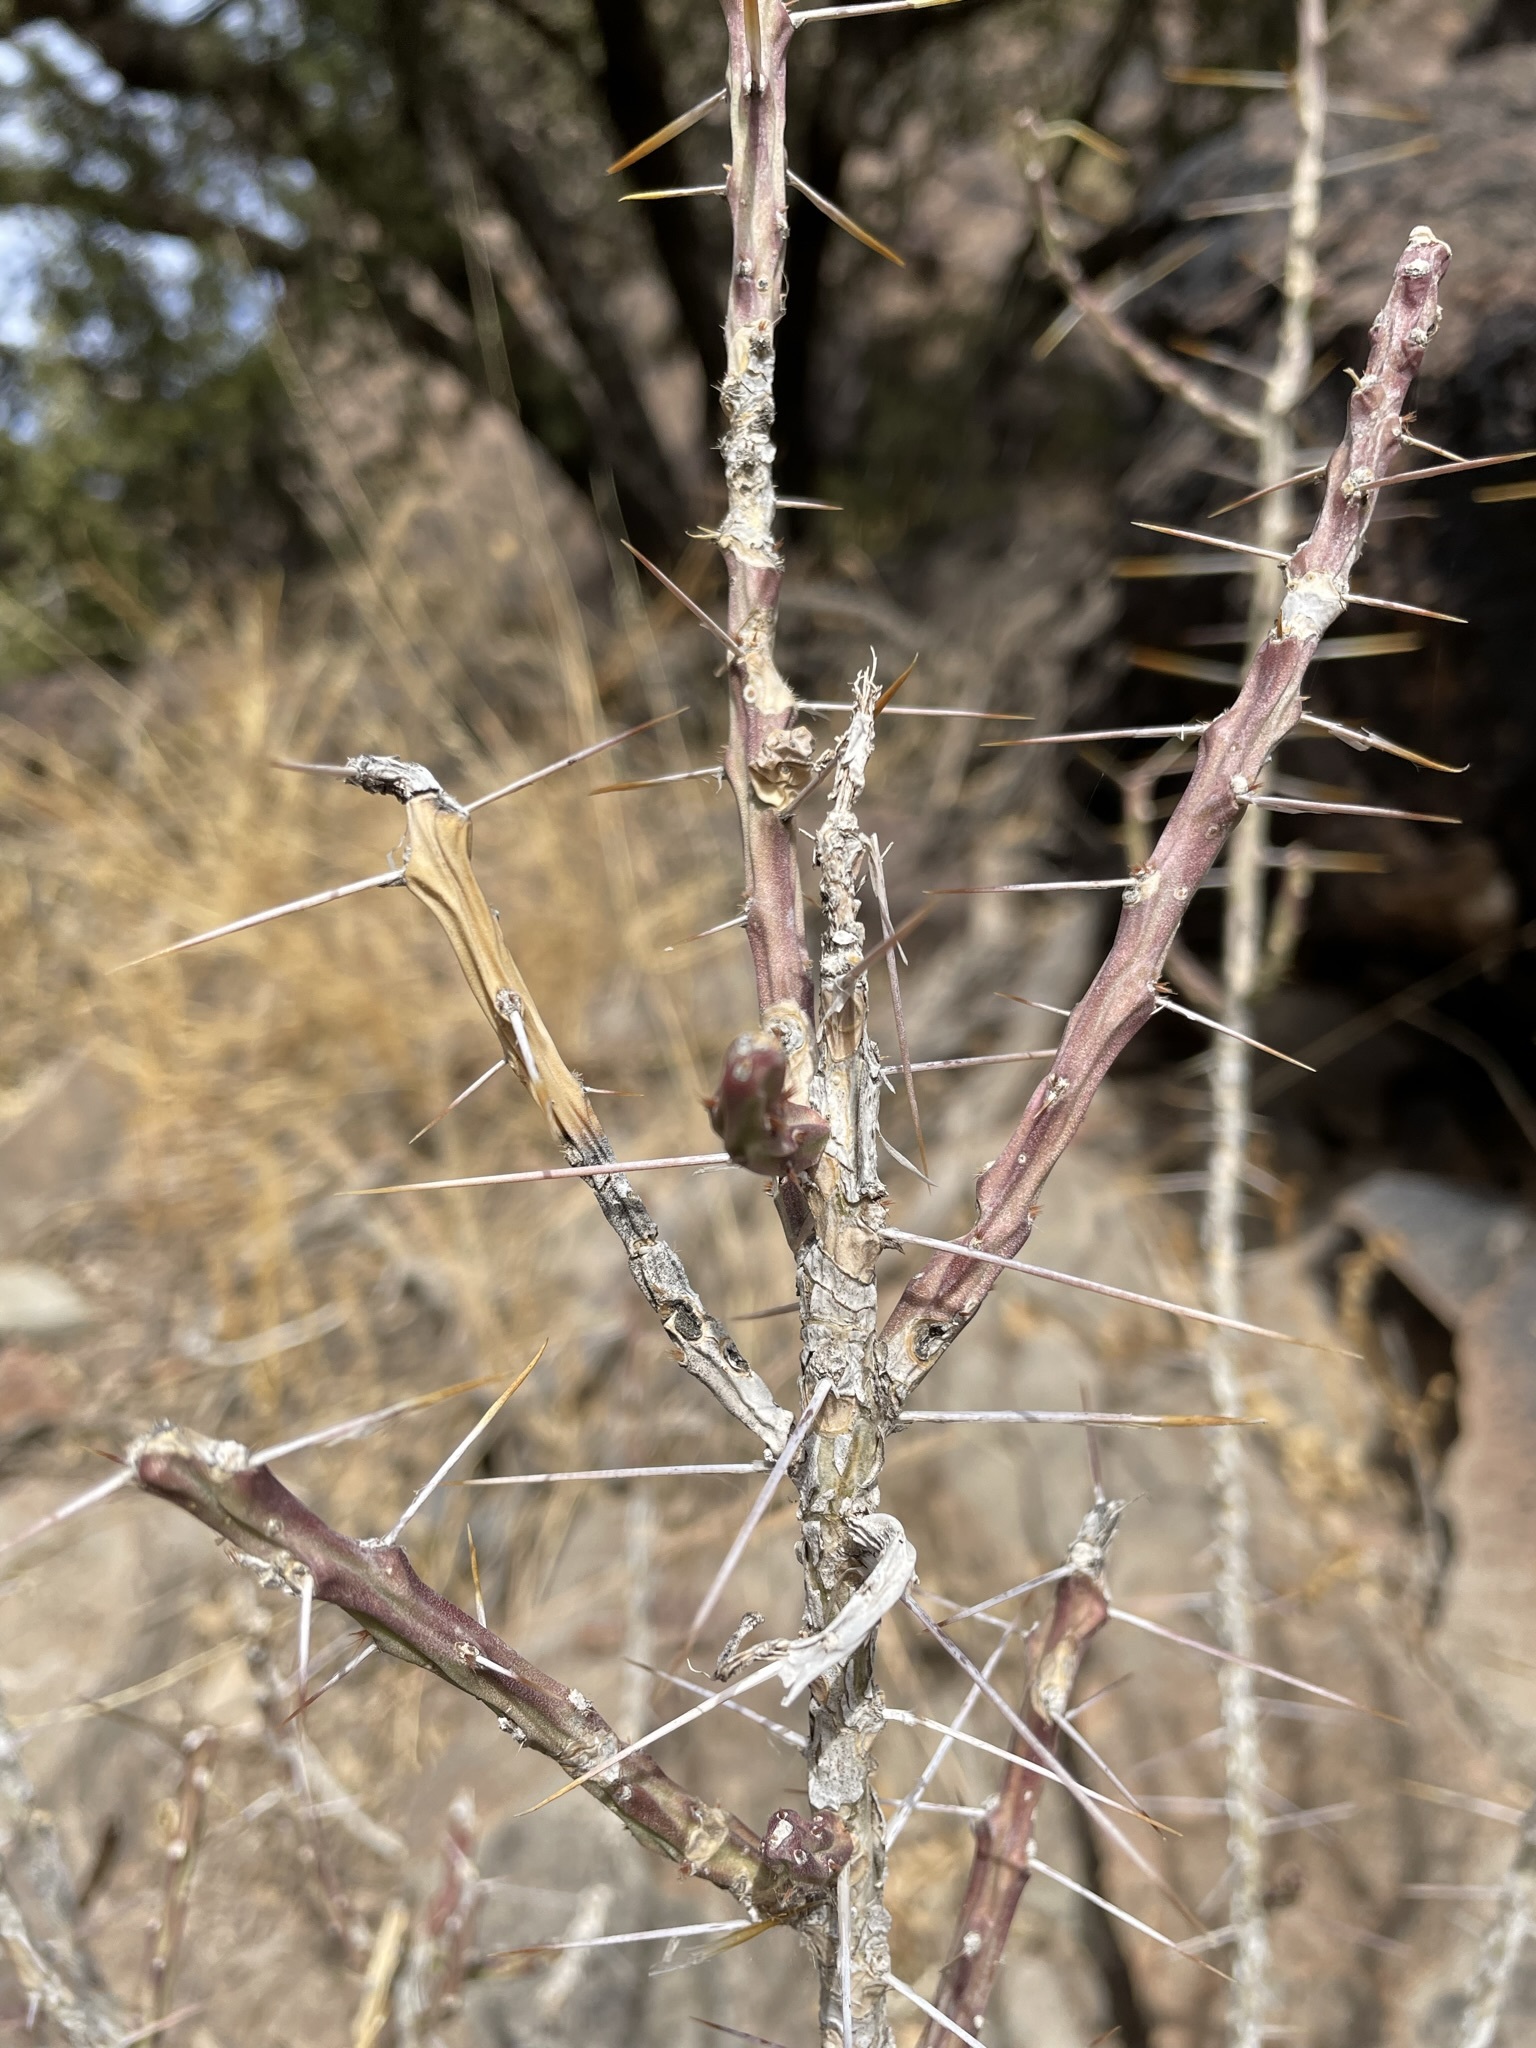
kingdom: Plantae
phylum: Tracheophyta
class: Magnoliopsida
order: Caryophyllales
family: Cactaceae
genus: Cylindropuntia
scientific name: Cylindropuntia leptocaulis
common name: Christmas cactus
